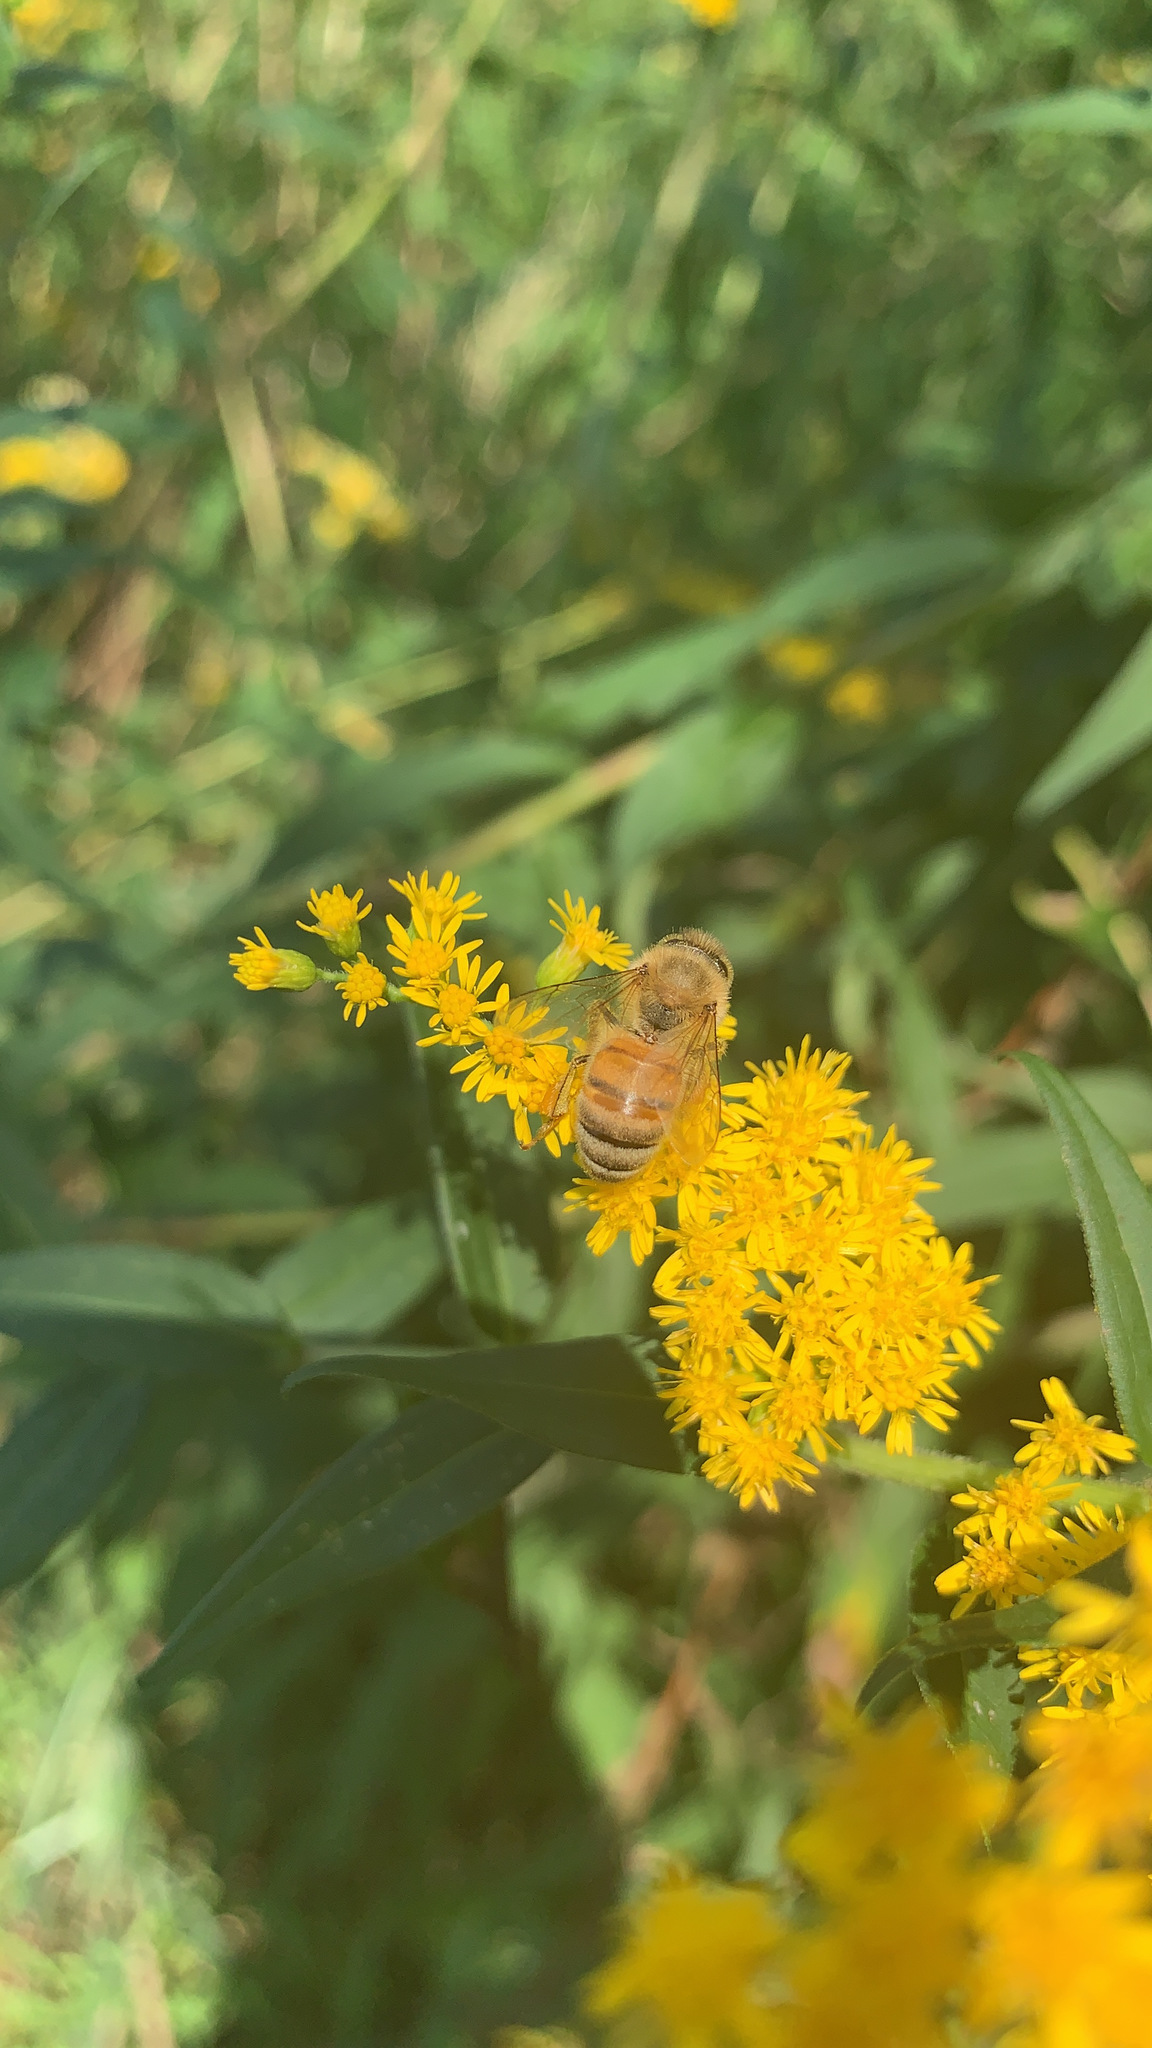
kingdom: Animalia
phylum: Arthropoda
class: Insecta
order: Hymenoptera
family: Apidae
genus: Apis
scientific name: Apis mellifera
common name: Honey bee
